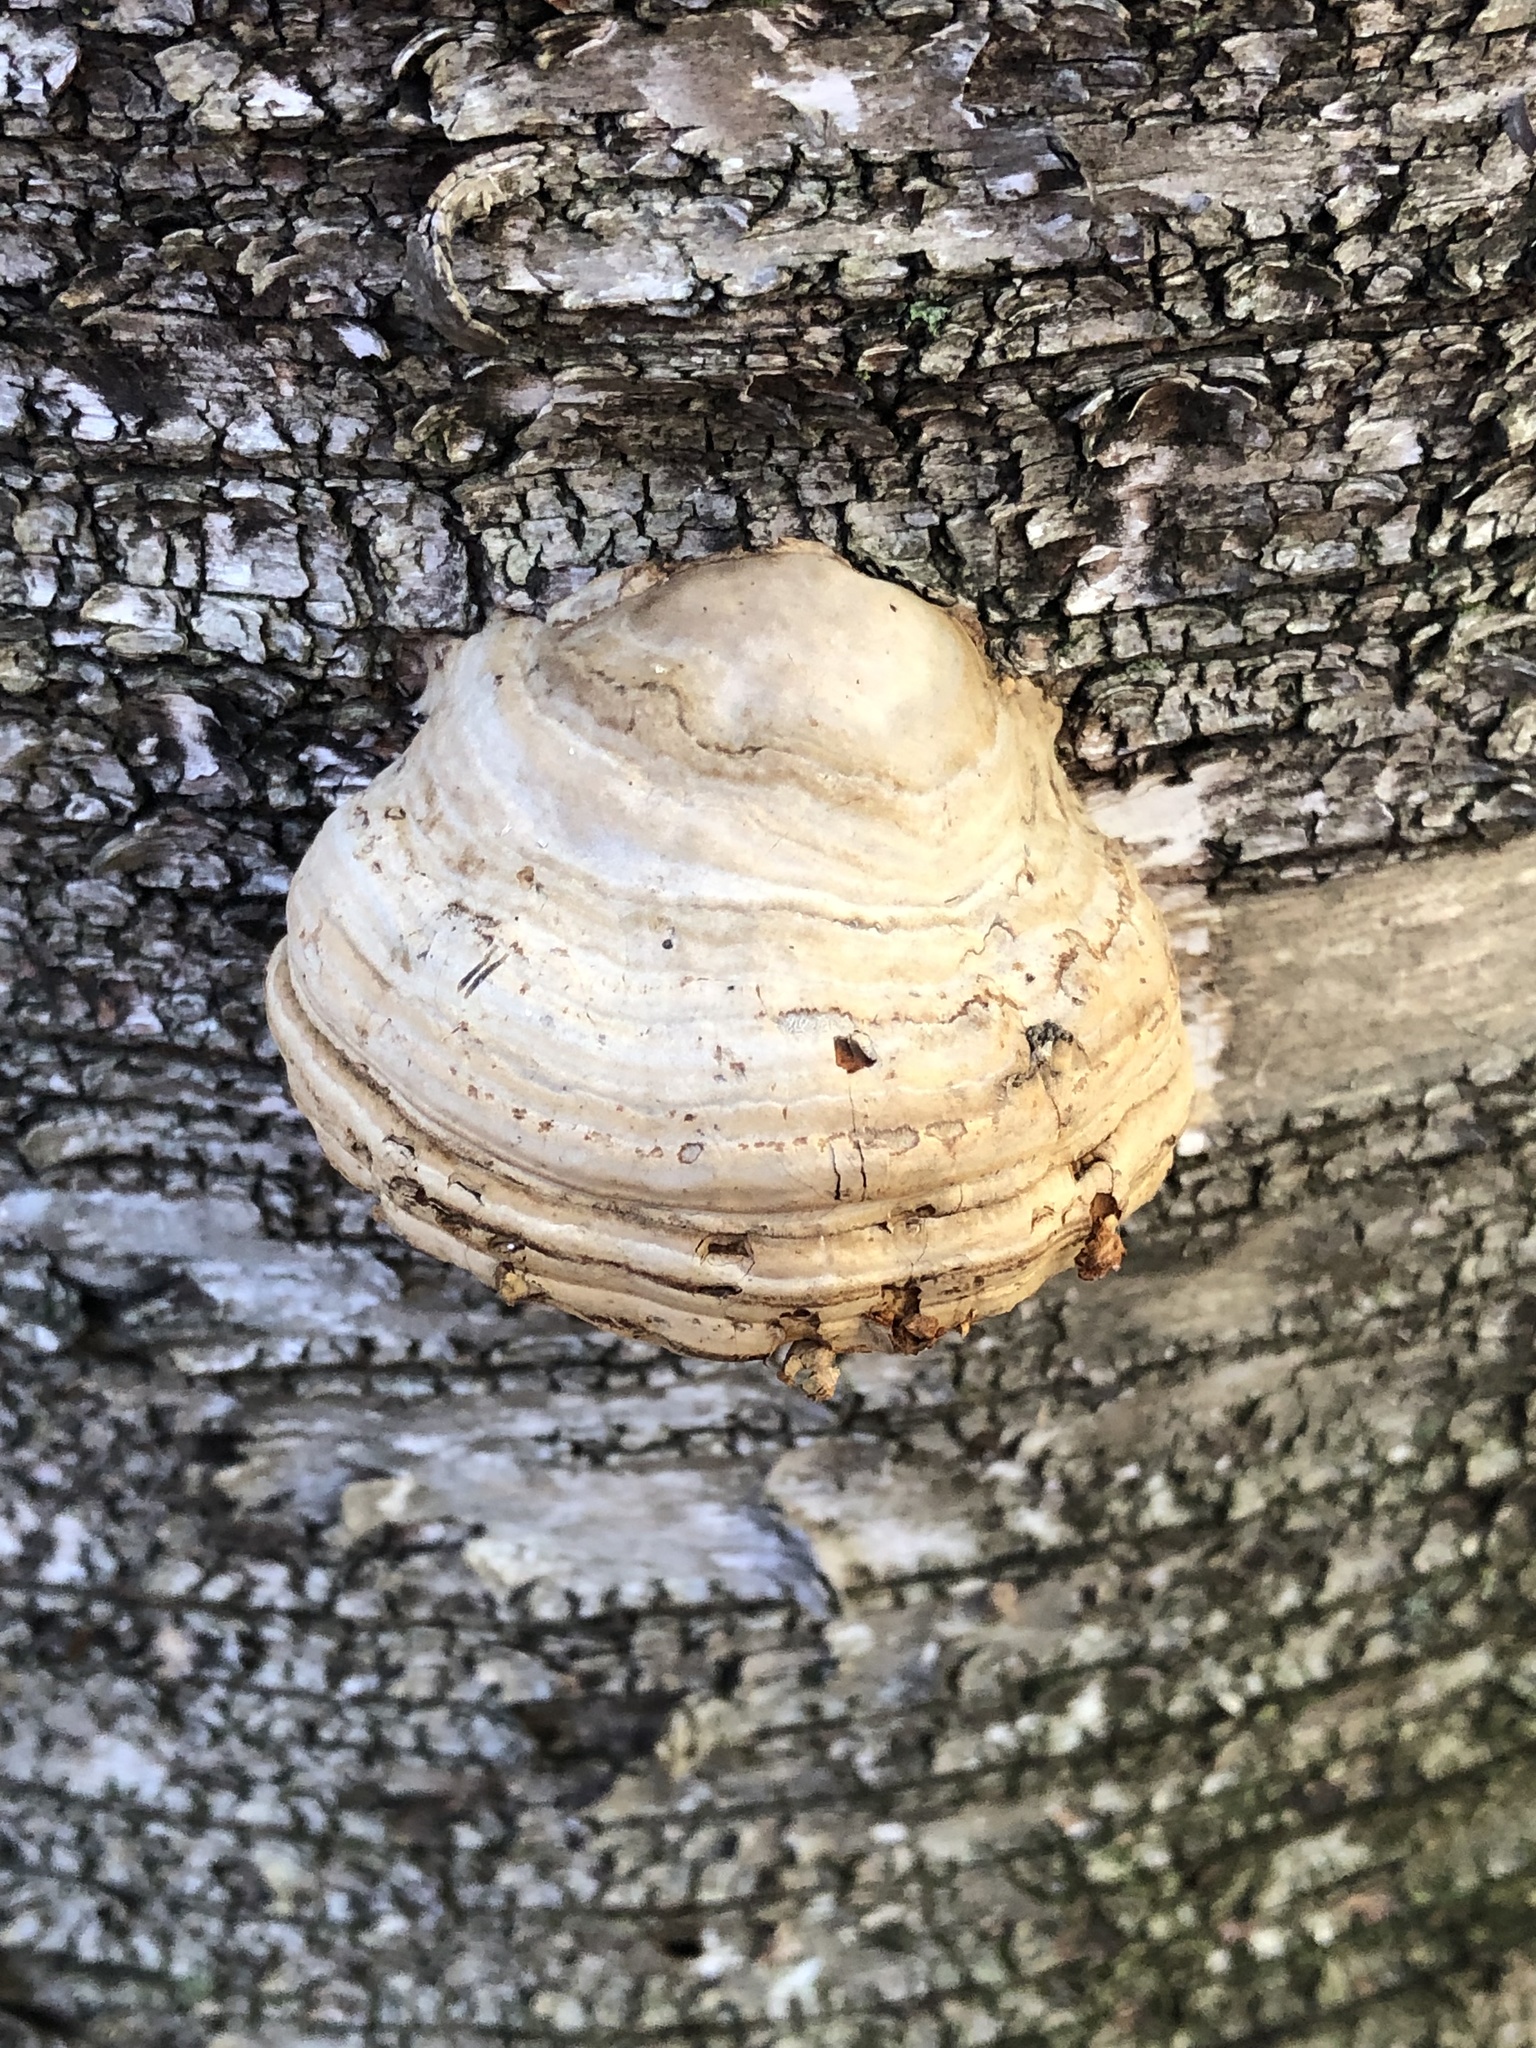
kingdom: Fungi
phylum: Basidiomycota
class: Agaricomycetes
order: Polyporales
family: Polyporaceae
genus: Fomes
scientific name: Fomes fomentarius
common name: Hoof fungus
